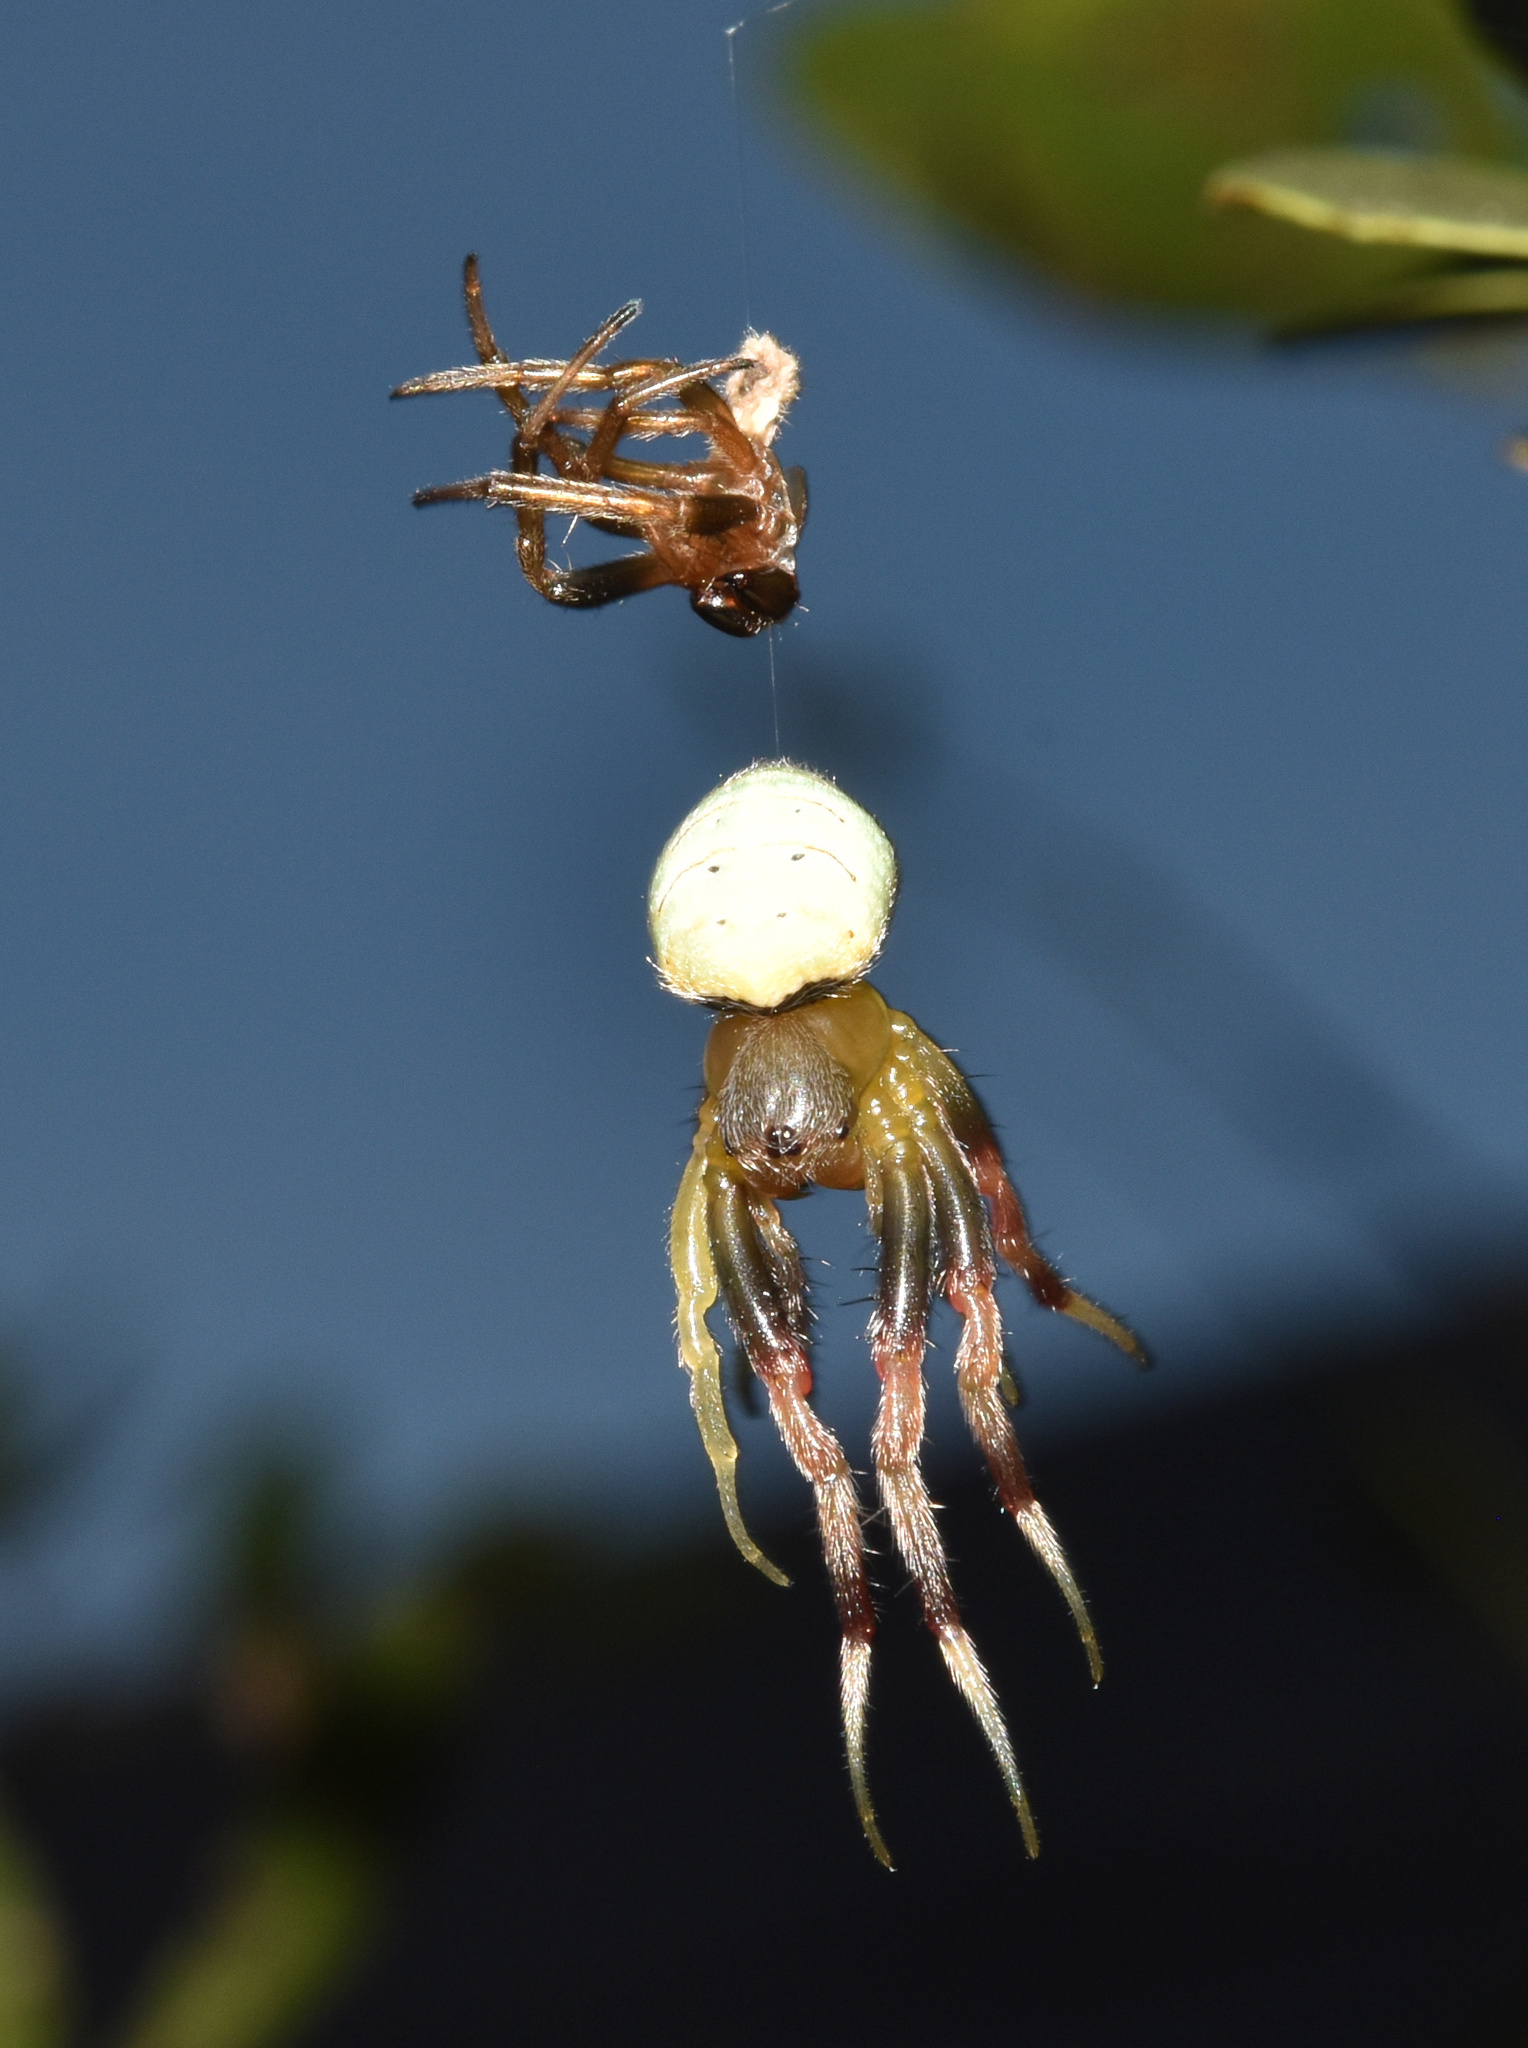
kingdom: Animalia
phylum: Arthropoda
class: Arachnida
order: Araneae
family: Araneidae
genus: Araneus
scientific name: Araneus apricus
